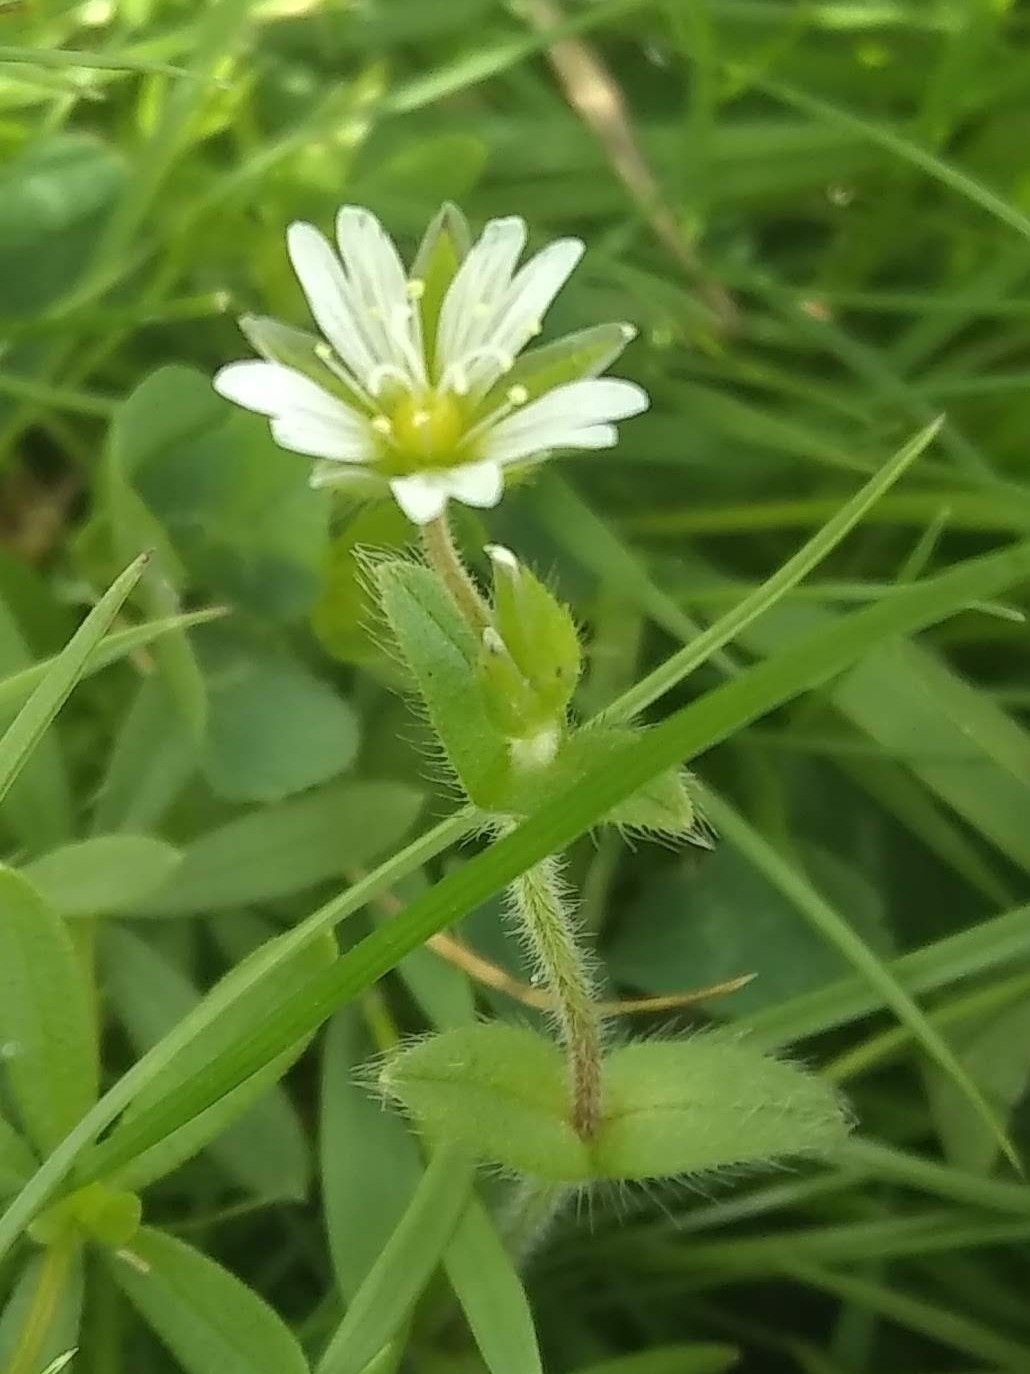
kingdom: Plantae
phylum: Tracheophyta
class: Magnoliopsida
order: Caryophyllales
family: Caryophyllaceae
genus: Cerastium
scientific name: Cerastium fontanum
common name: Common mouse-ear
